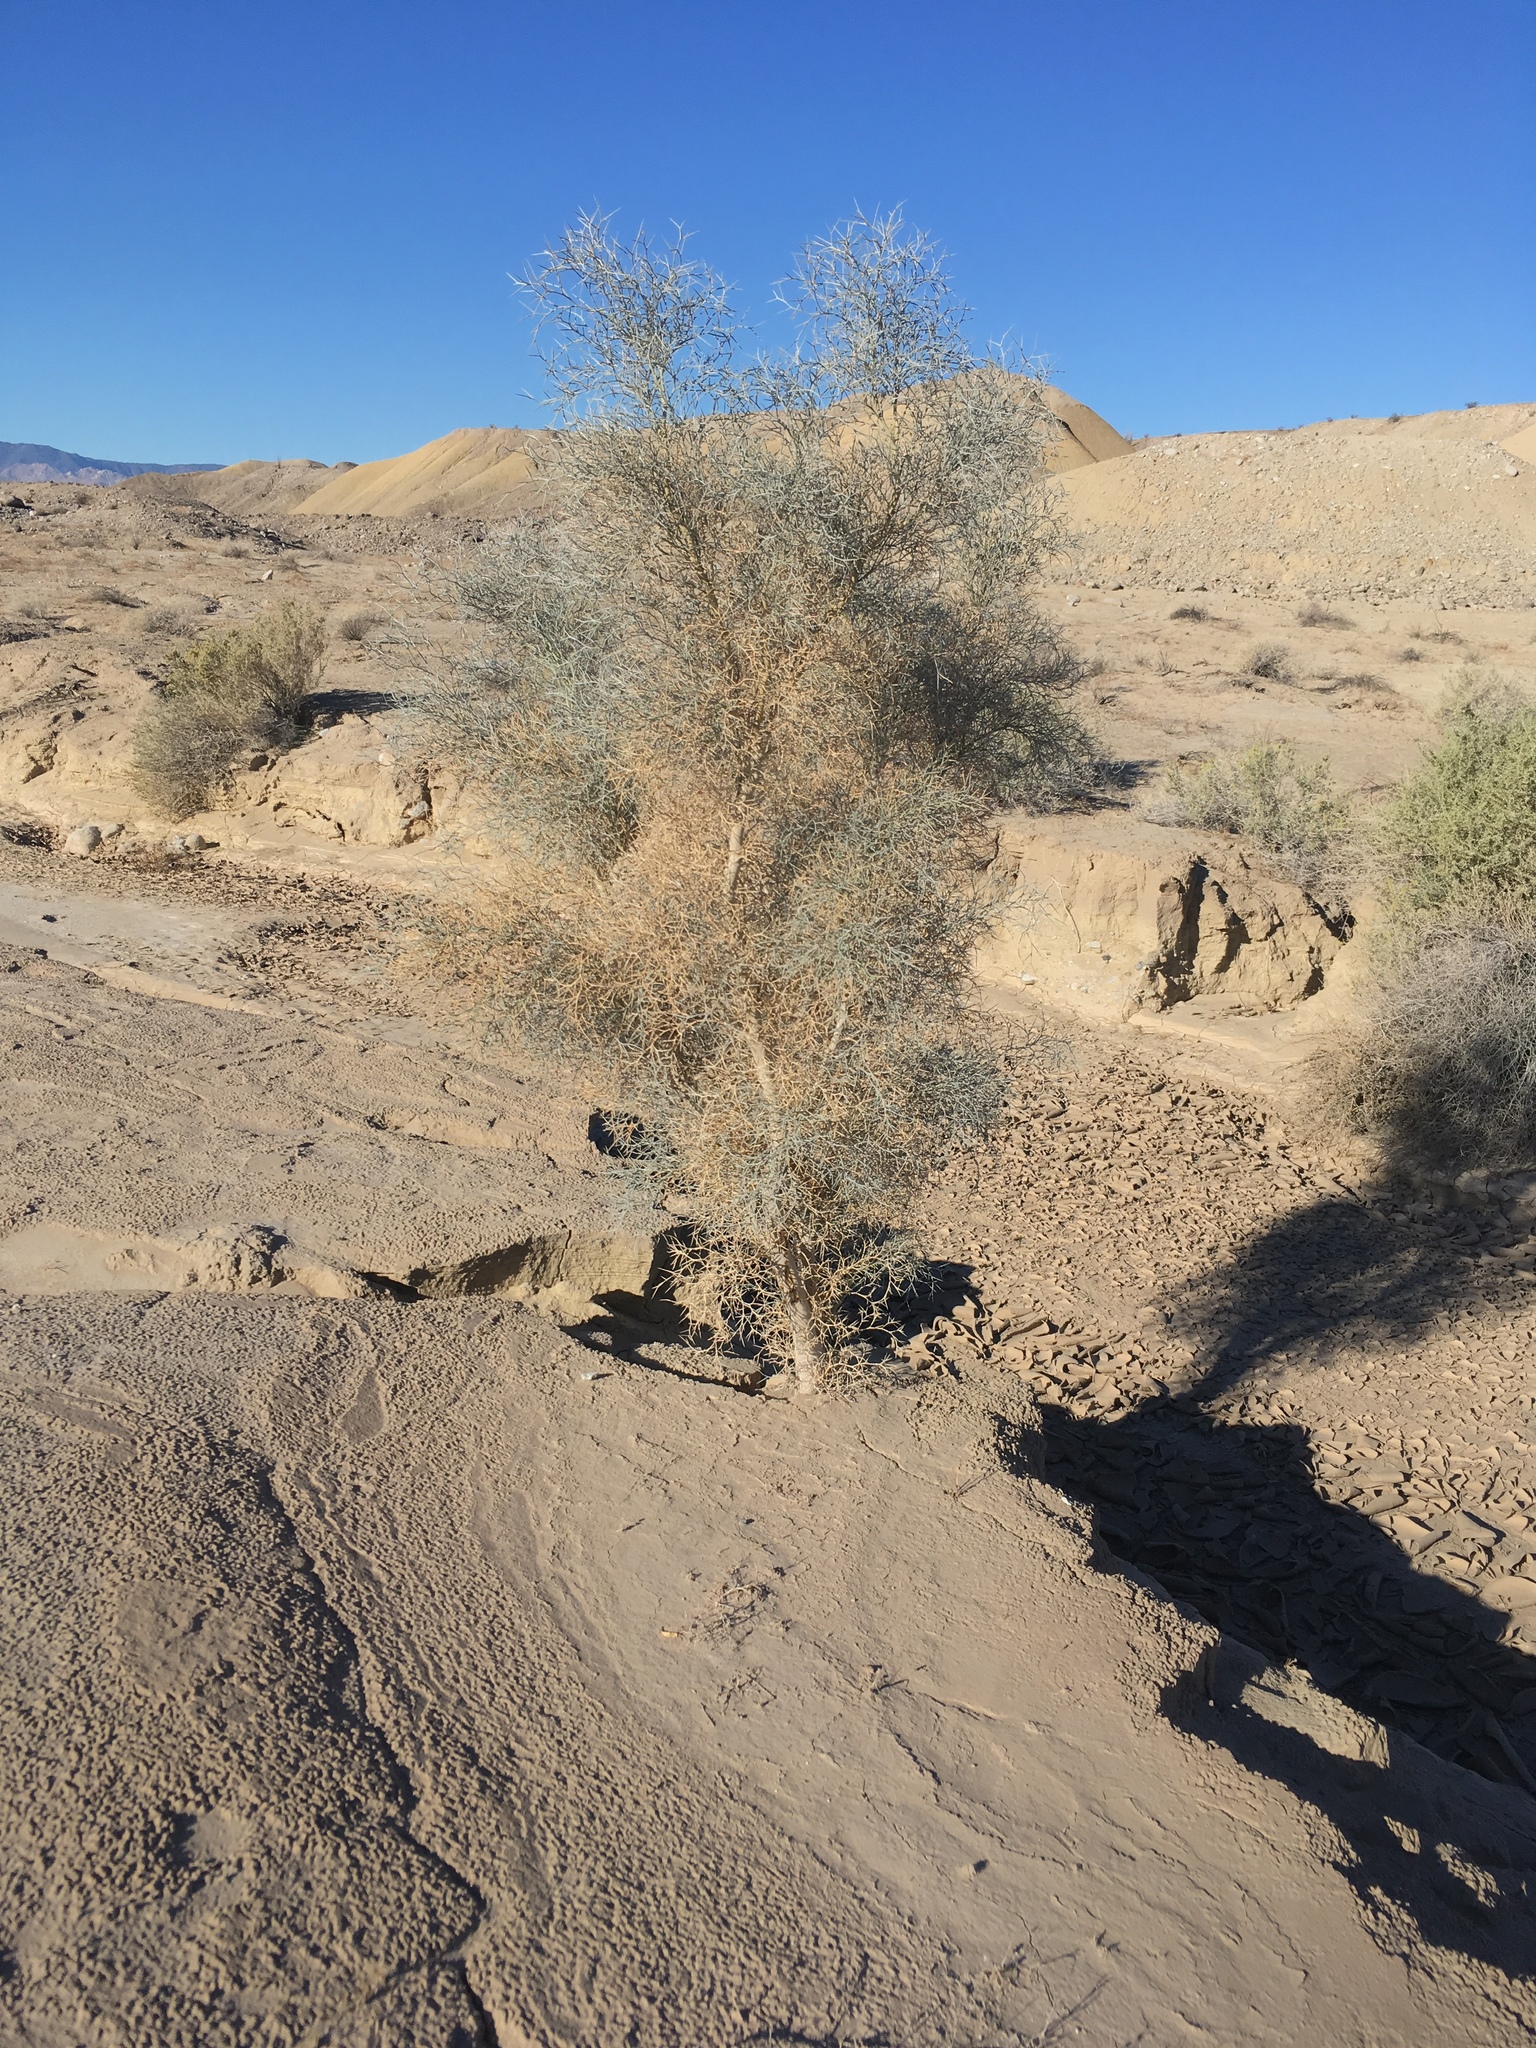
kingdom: Plantae
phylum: Tracheophyta
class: Magnoliopsida
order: Fabales
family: Fabaceae
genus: Psorothamnus
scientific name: Psorothamnus spinosus
